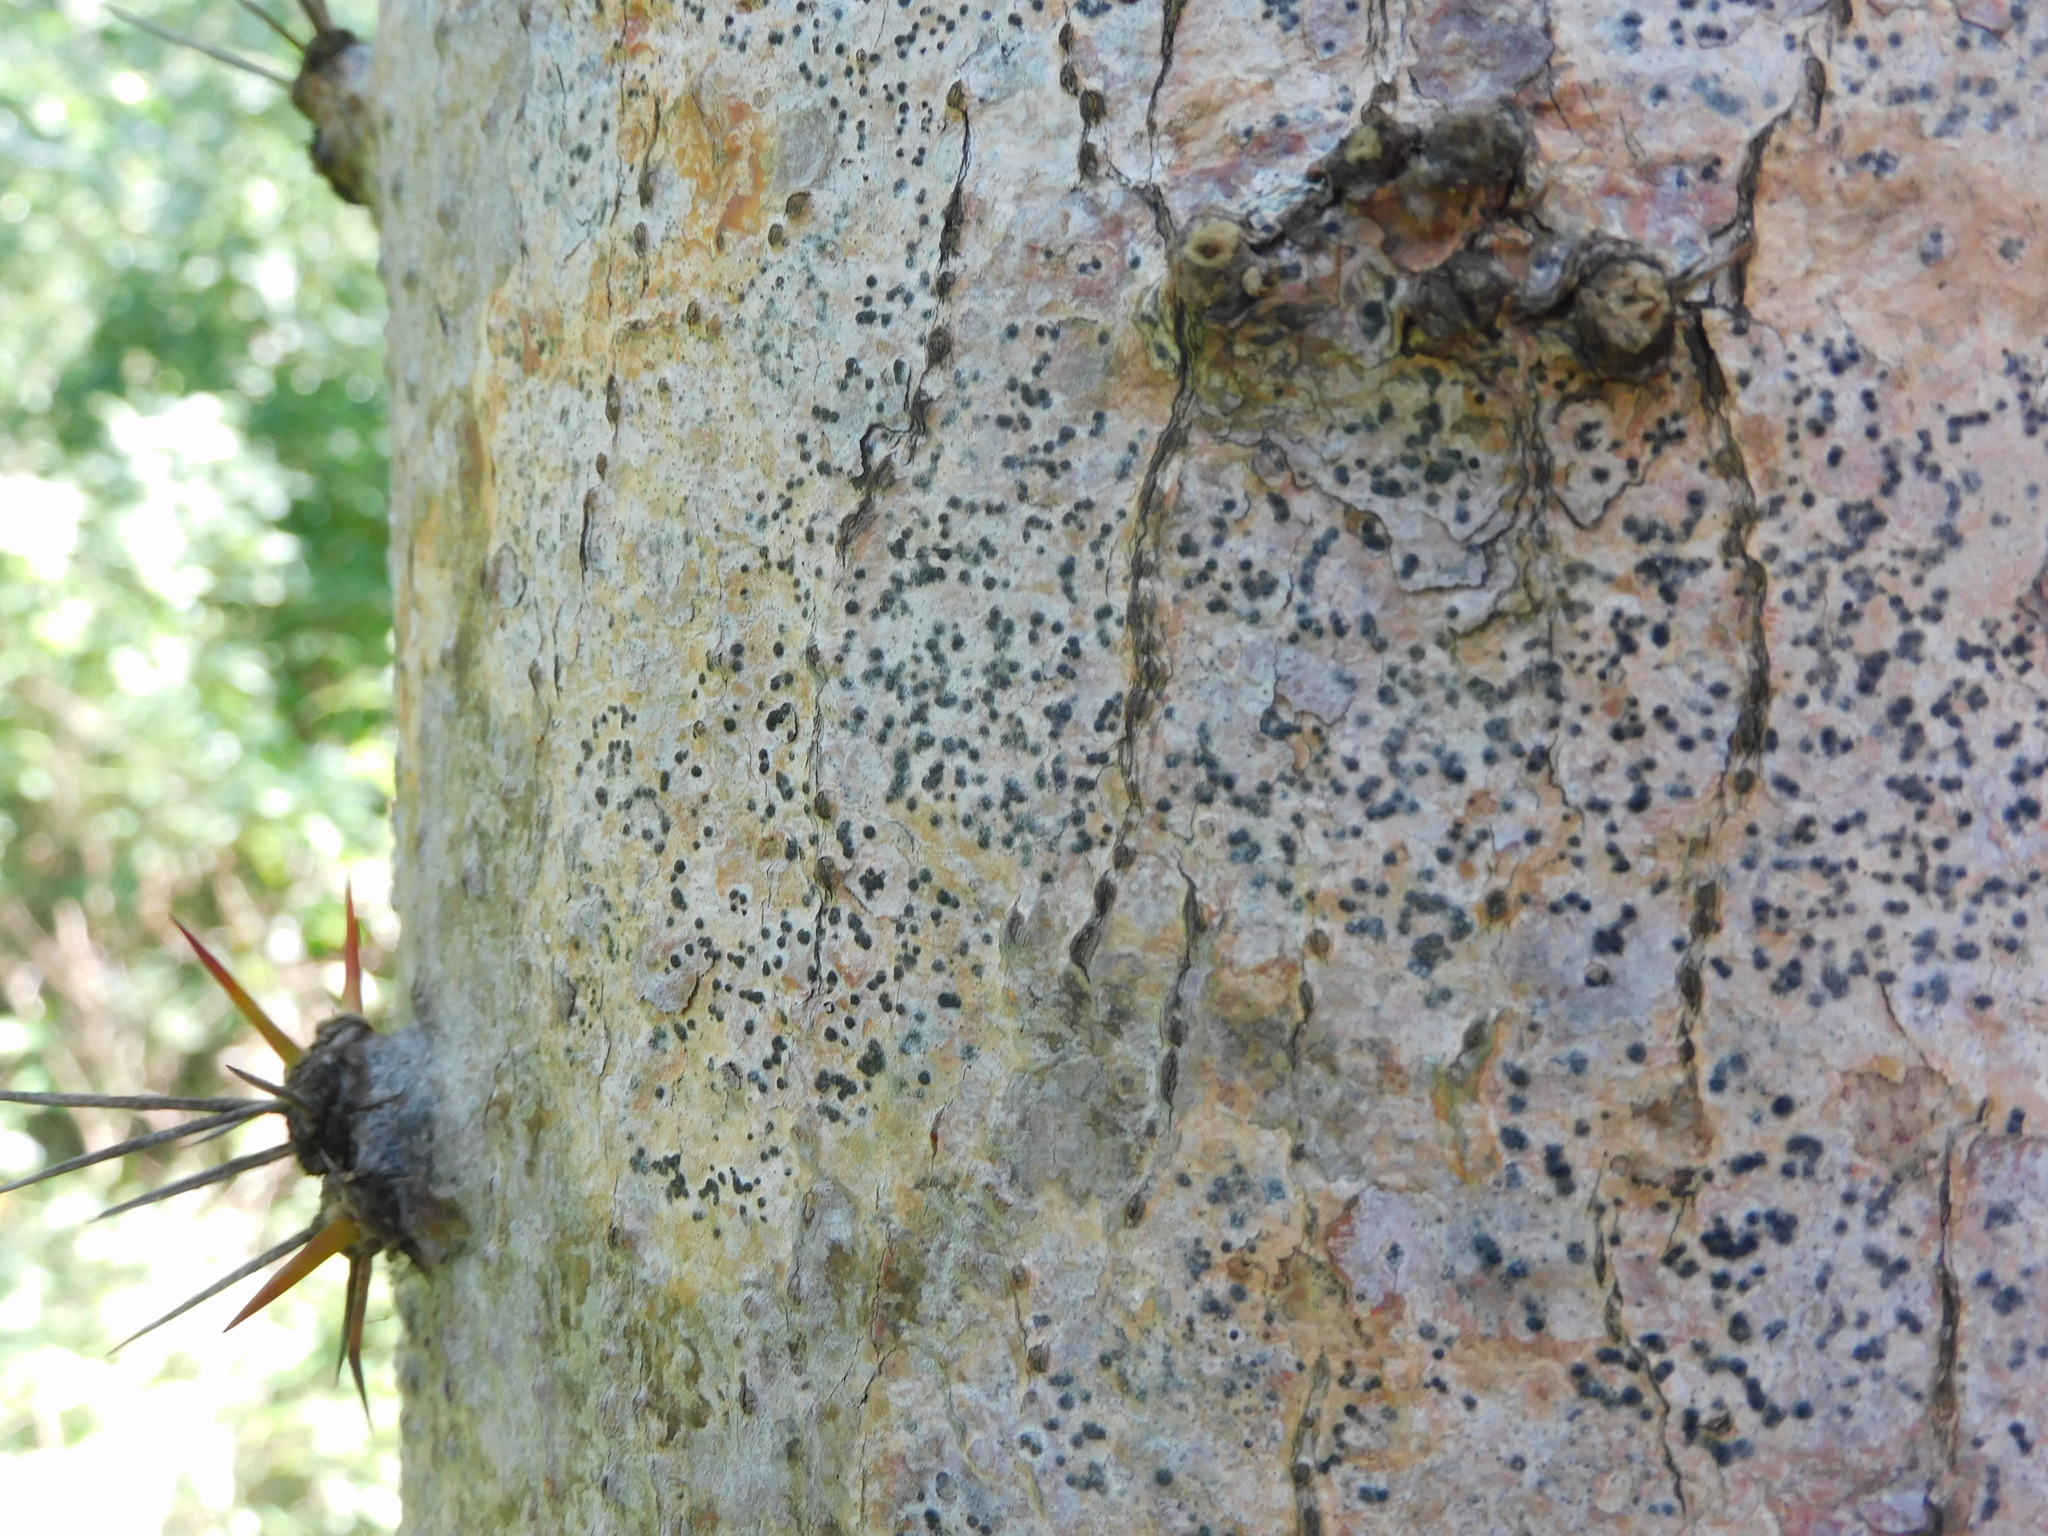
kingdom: Plantae
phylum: Tracheophyta
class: Magnoliopsida
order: Caryophyllales
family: Cactaceae
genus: Leuenbergeria
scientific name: Leuenbergeria guamacho
